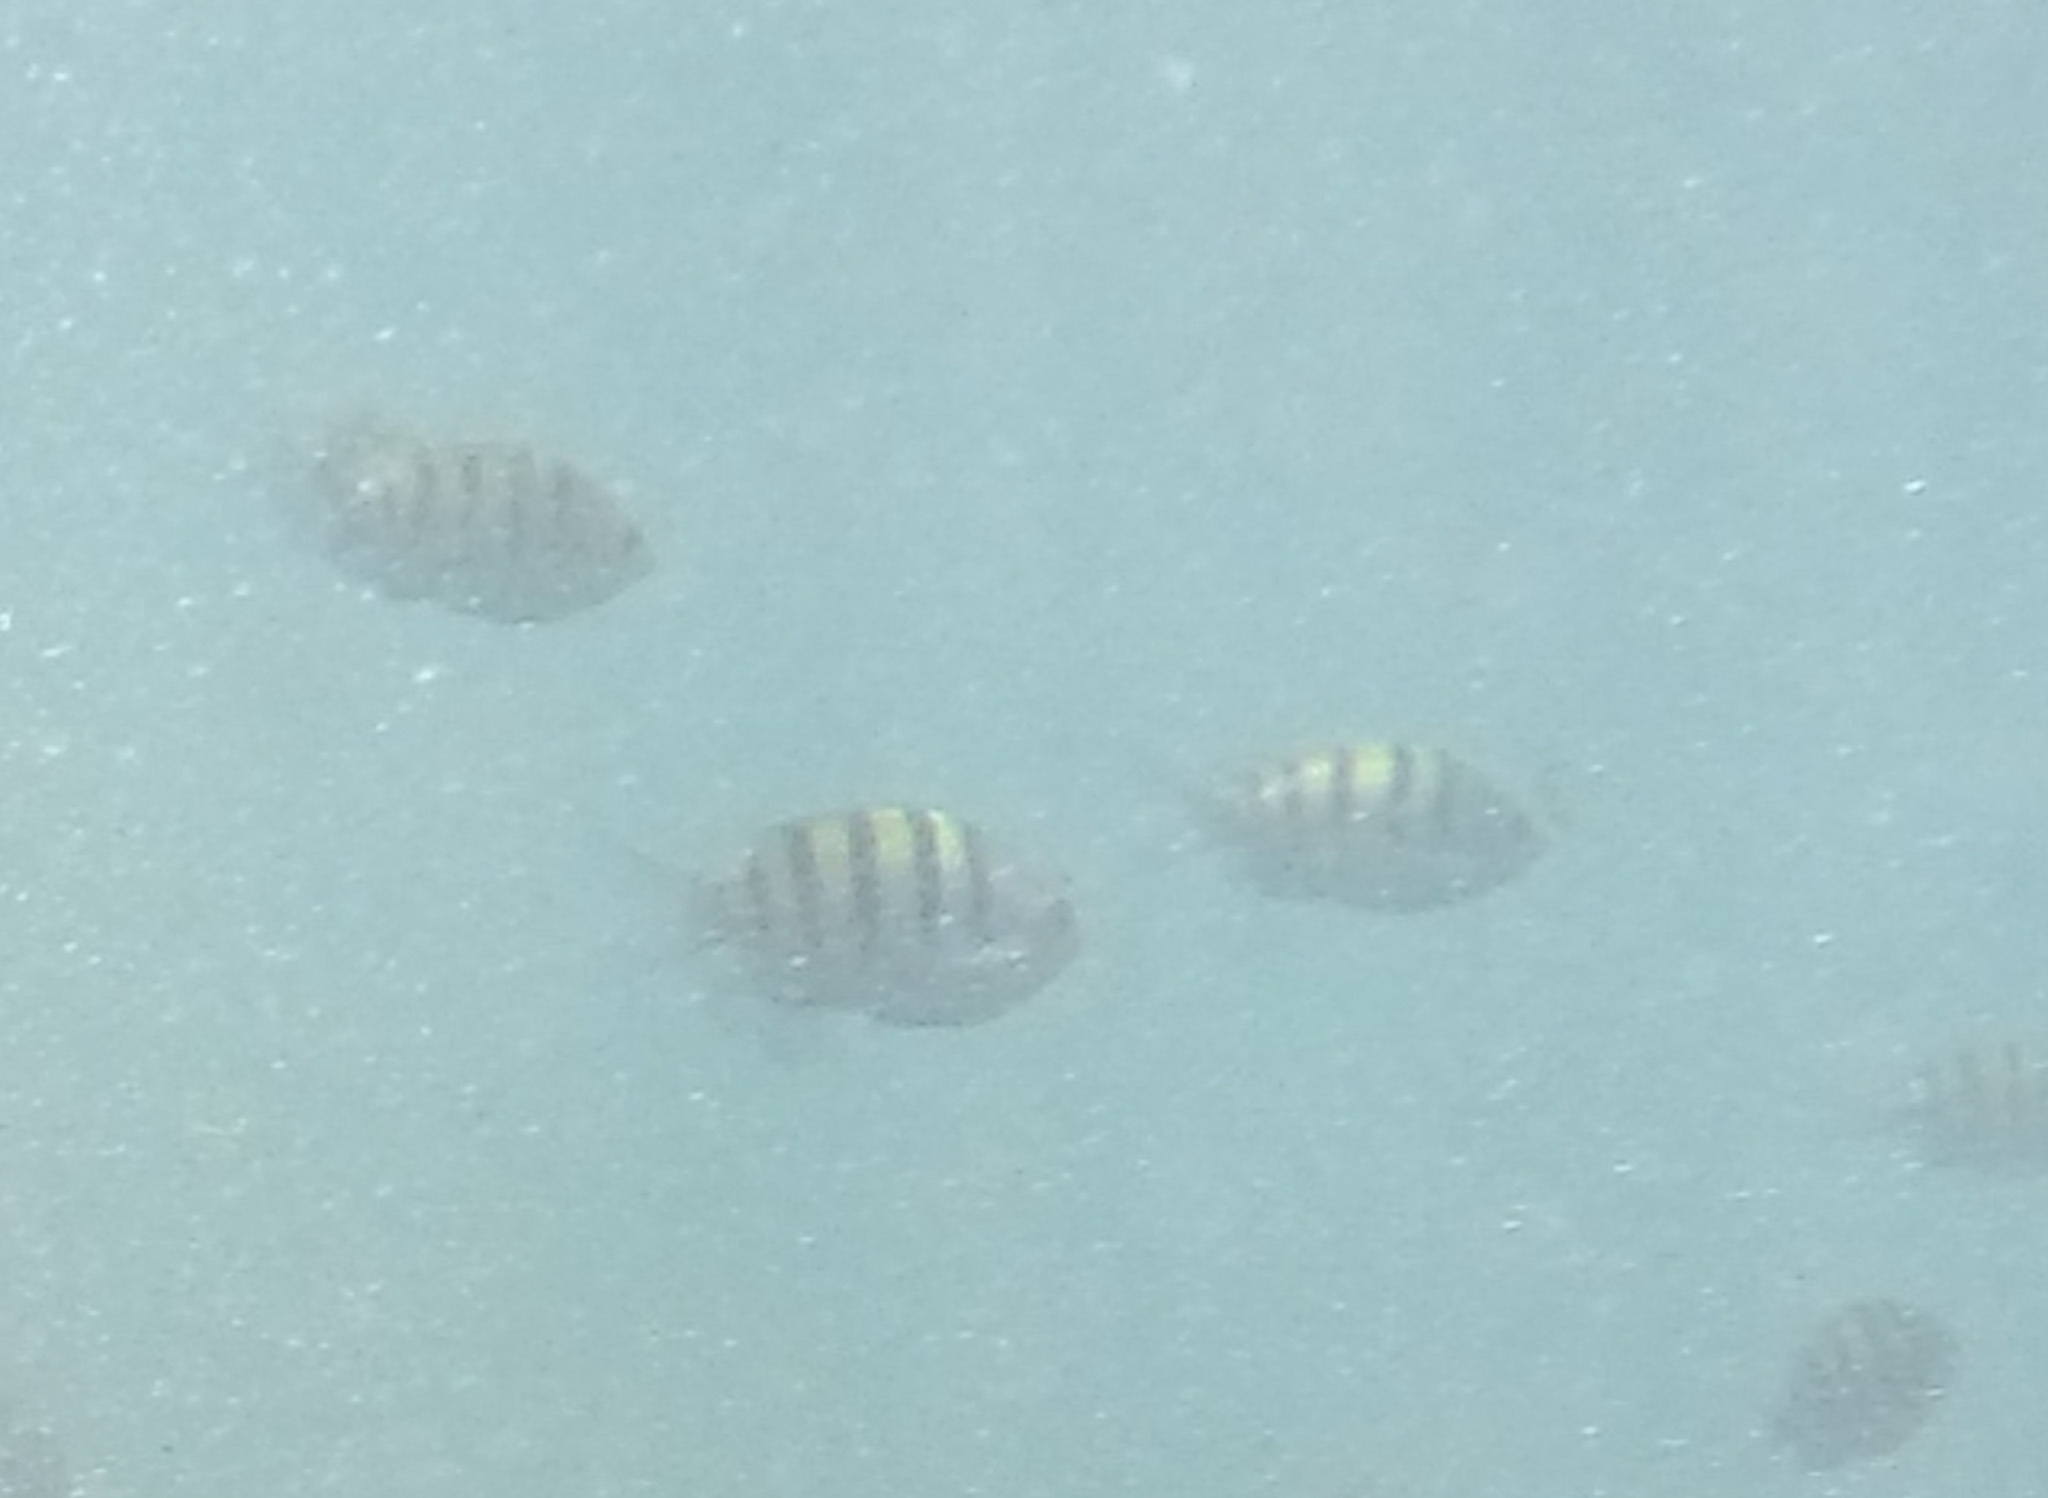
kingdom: Animalia
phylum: Chordata
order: Perciformes
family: Pomacentridae
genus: Abudefduf
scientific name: Abudefduf troschelii
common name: Panamic sergeant major
